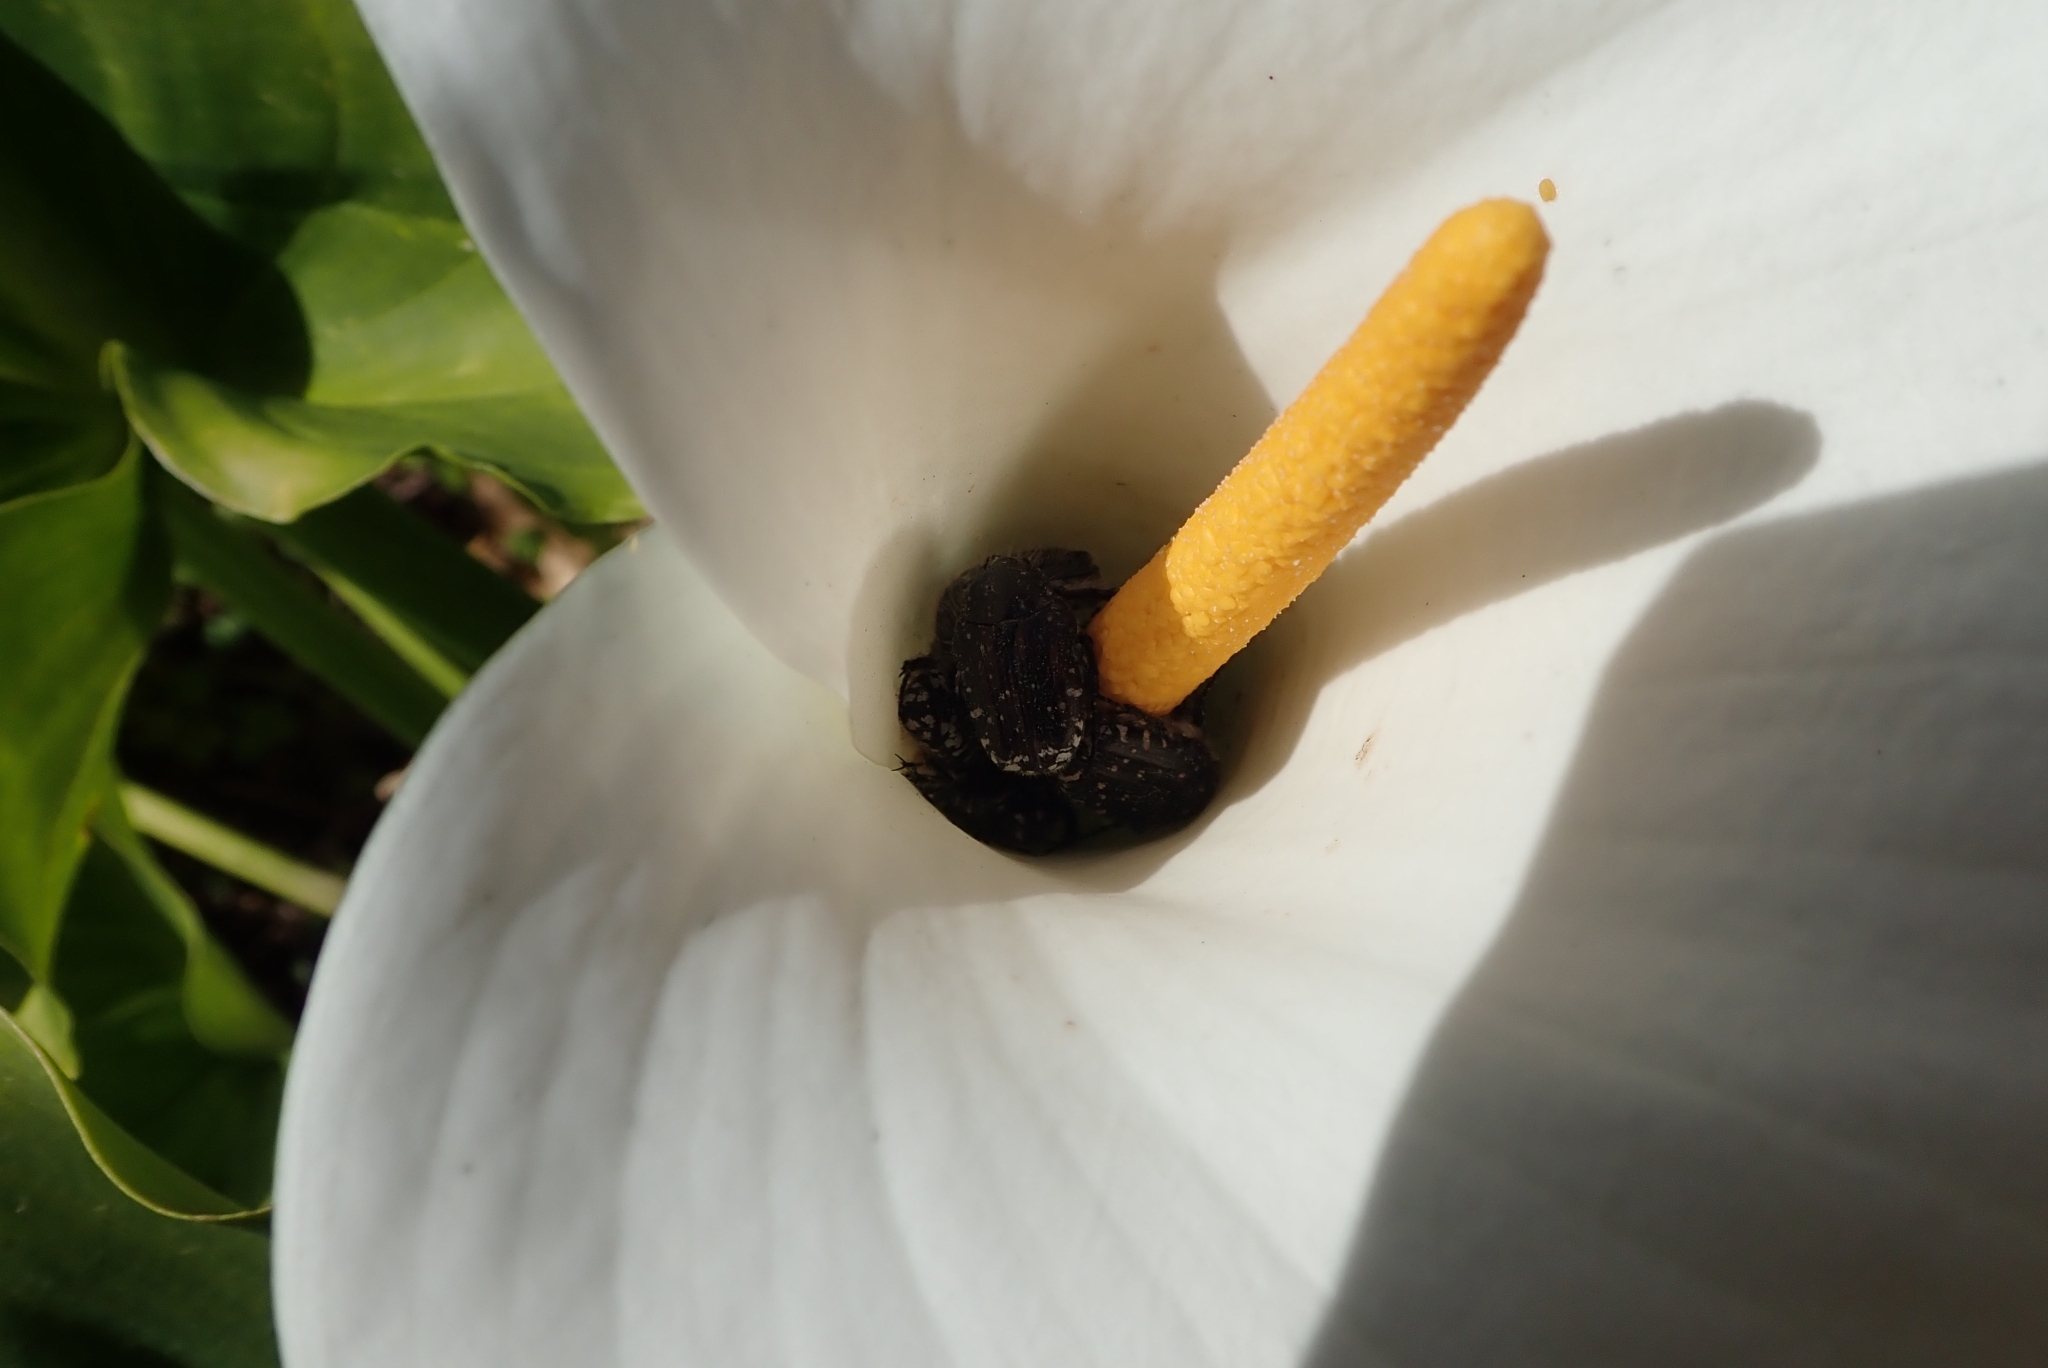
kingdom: Animalia
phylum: Arthropoda
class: Insecta
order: Coleoptera
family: Scarabaeidae
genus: Oxythyrea
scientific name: Oxythyrea funesta
